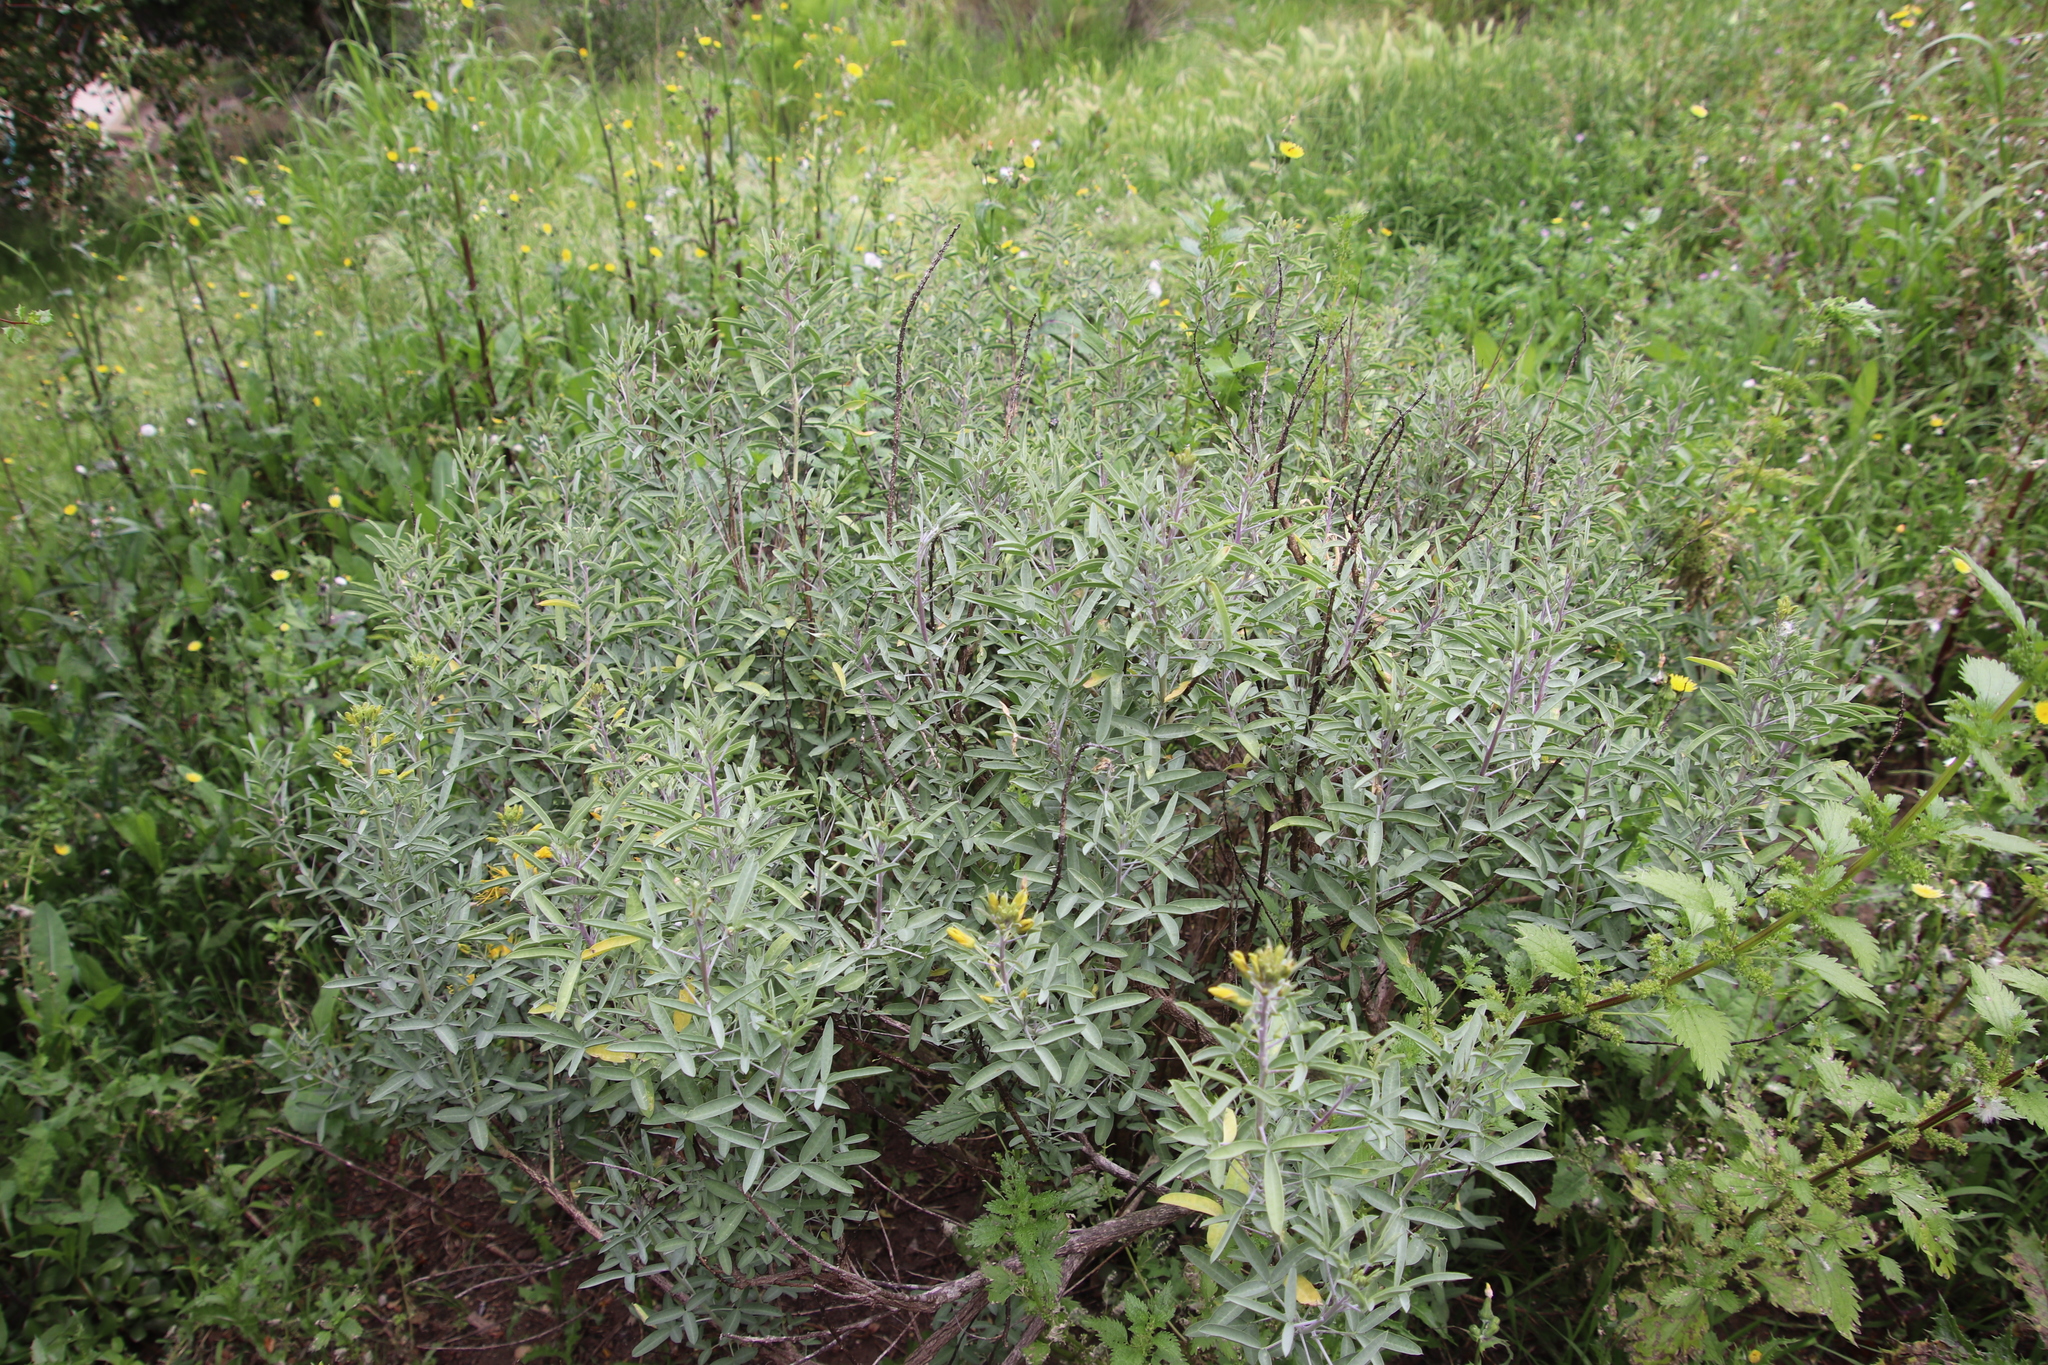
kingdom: Plantae
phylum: Tracheophyta
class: Magnoliopsida
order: Brassicales
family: Cleomaceae
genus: Cleomella
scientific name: Cleomella arborea
